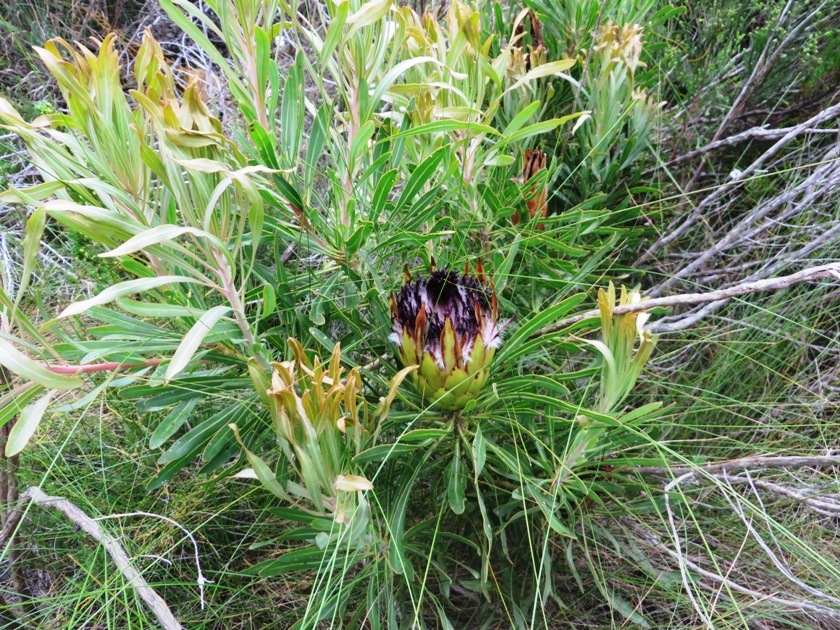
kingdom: Plantae
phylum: Tracheophyta
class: Magnoliopsida
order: Proteales
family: Proteaceae
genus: Protea
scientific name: Protea longifolia
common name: Long-leaf sugarbush
